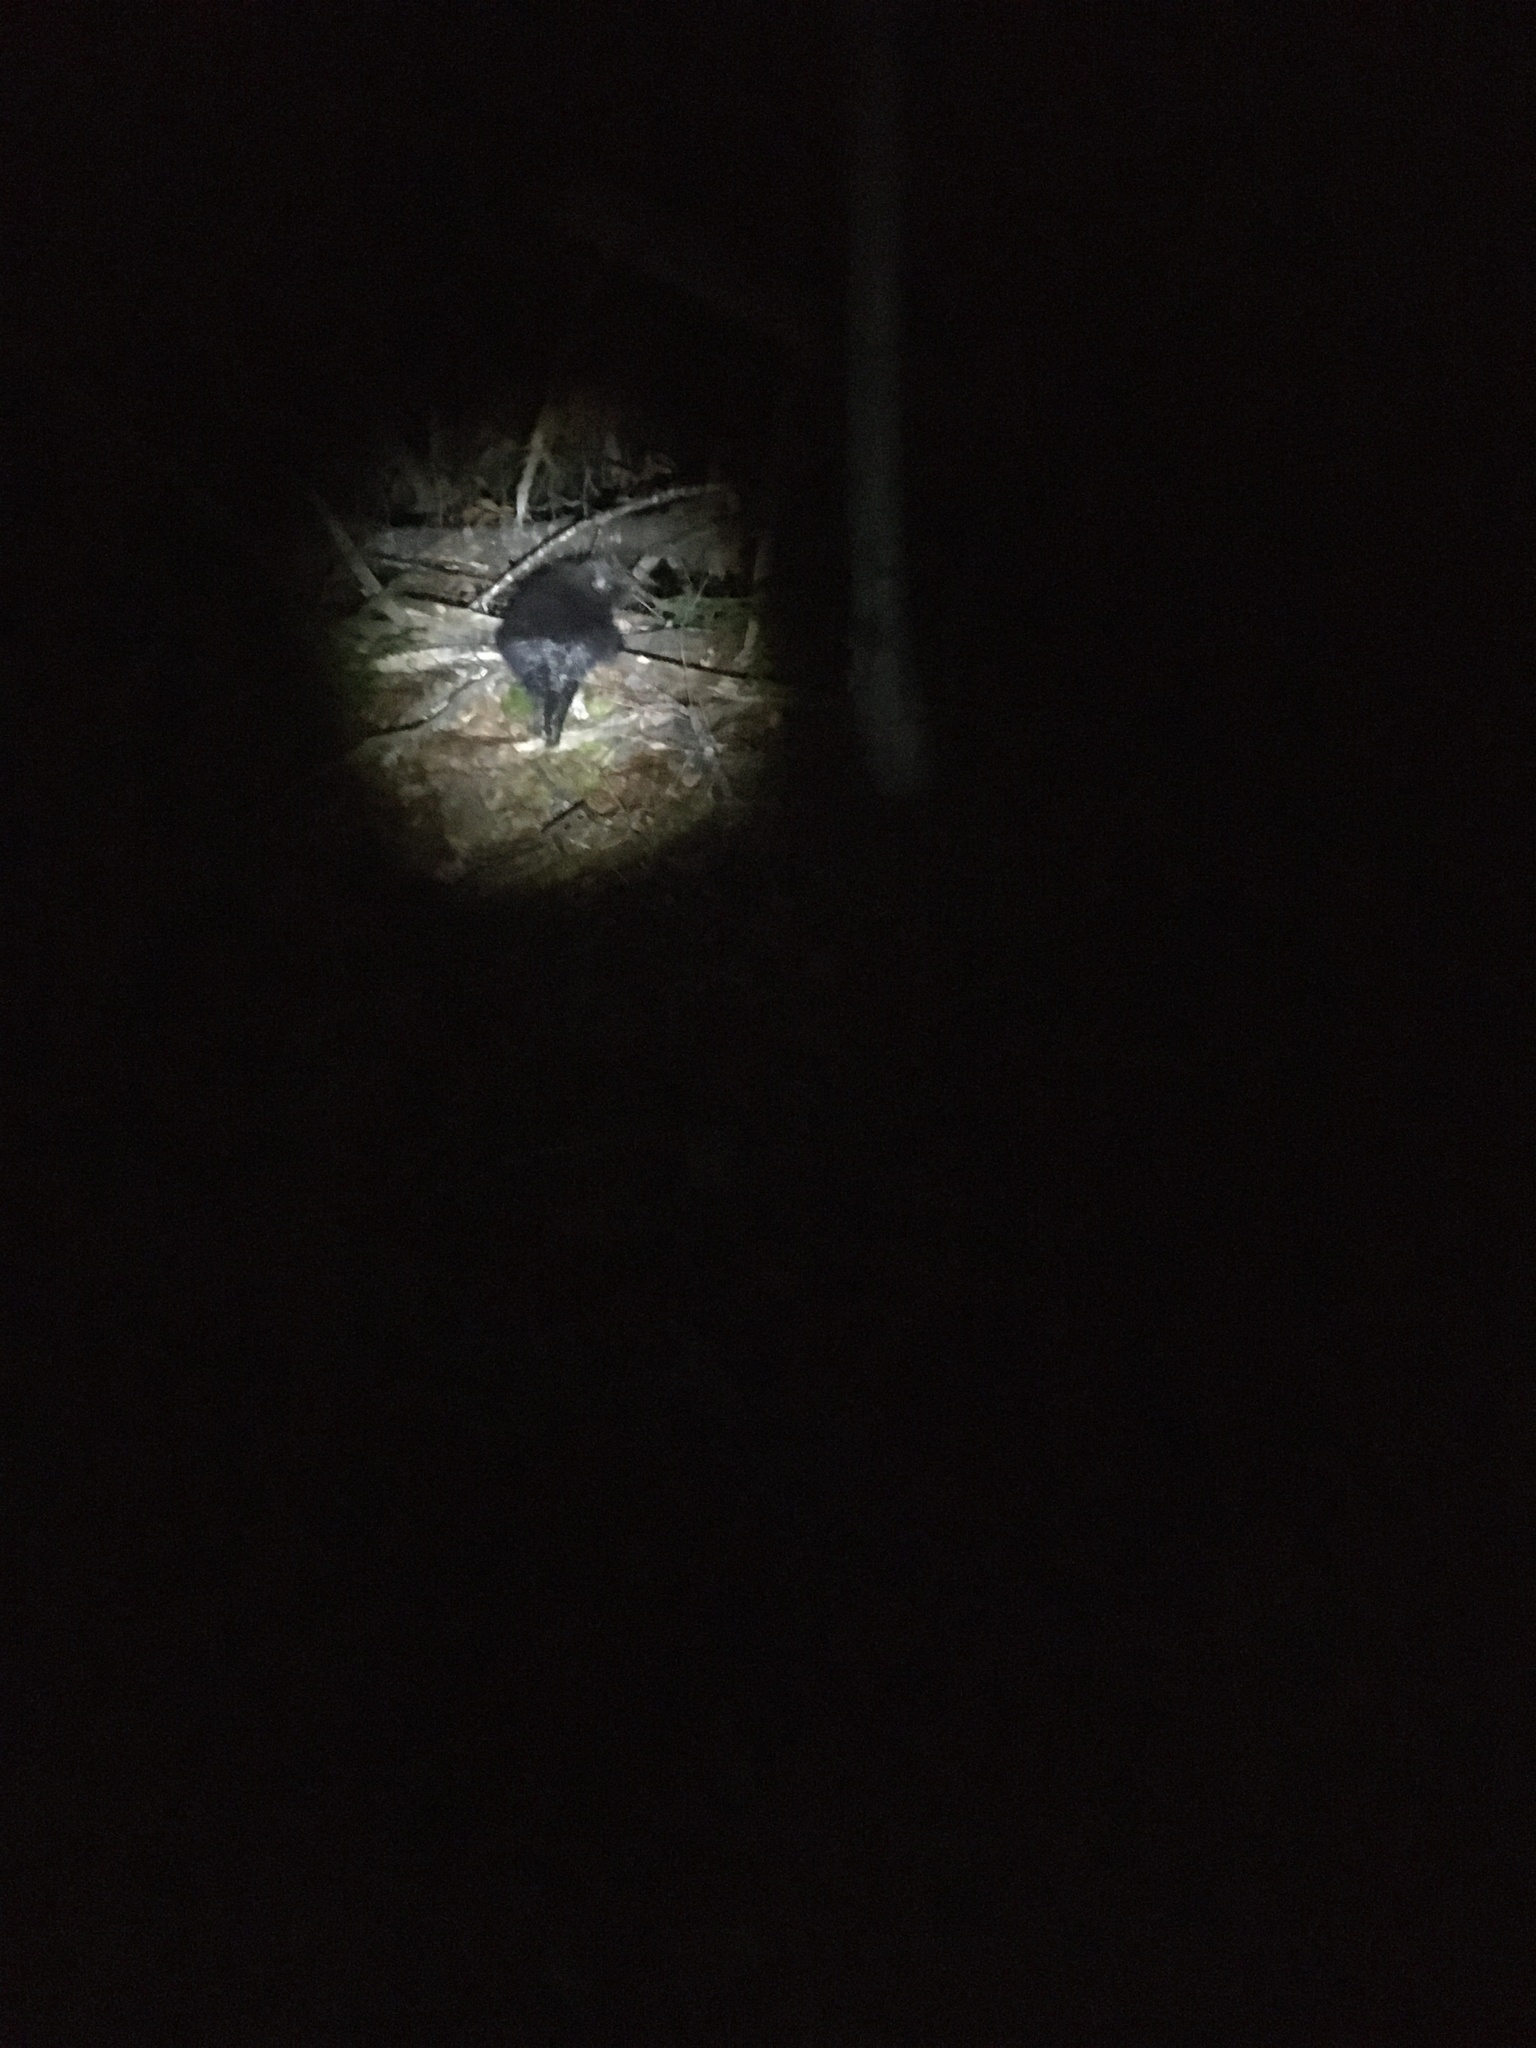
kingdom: Animalia
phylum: Chordata
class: Mammalia
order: Rodentia
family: Erethizontidae
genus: Erethizon
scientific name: Erethizon dorsatus
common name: North american porcupine
